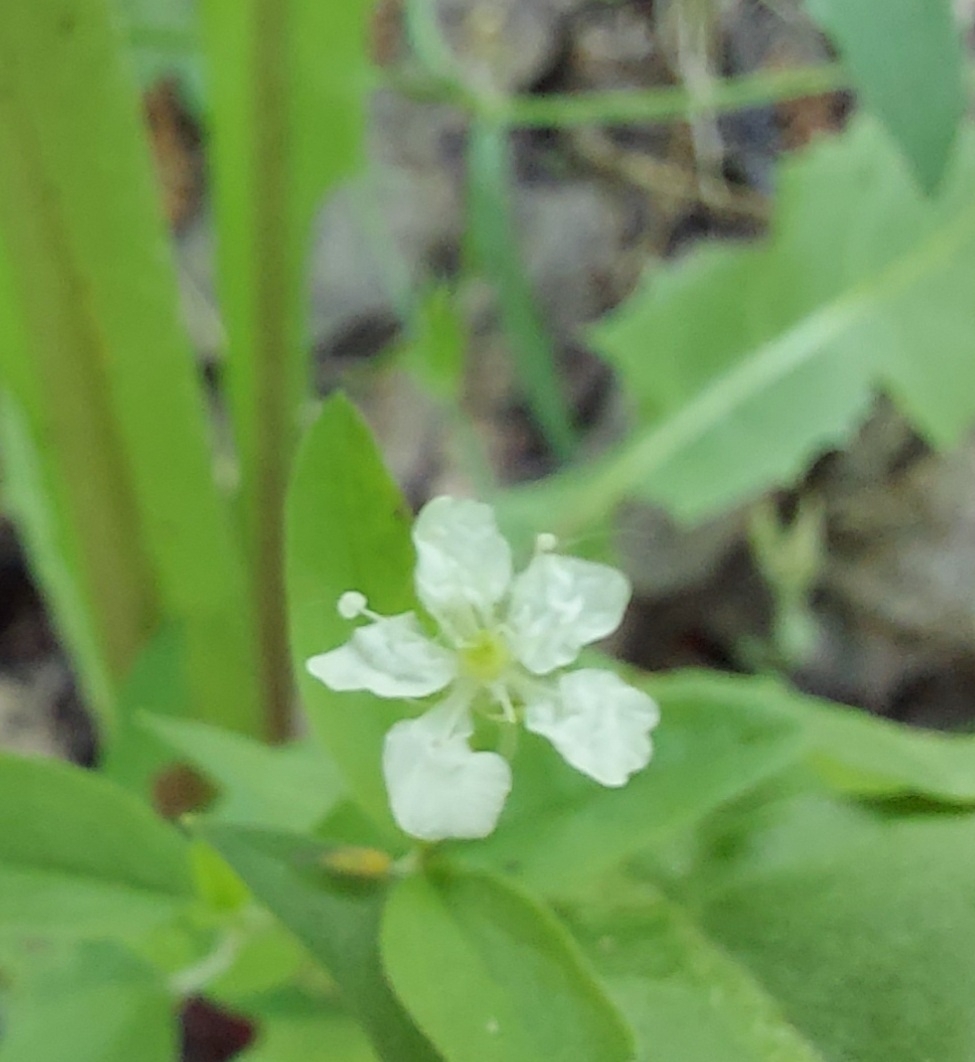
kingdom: Plantae
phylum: Tracheophyta
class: Magnoliopsida
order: Caryophyllales
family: Caryophyllaceae
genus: Moehringia
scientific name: Moehringia lateriflora
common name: Blunt-leaved sandwort
